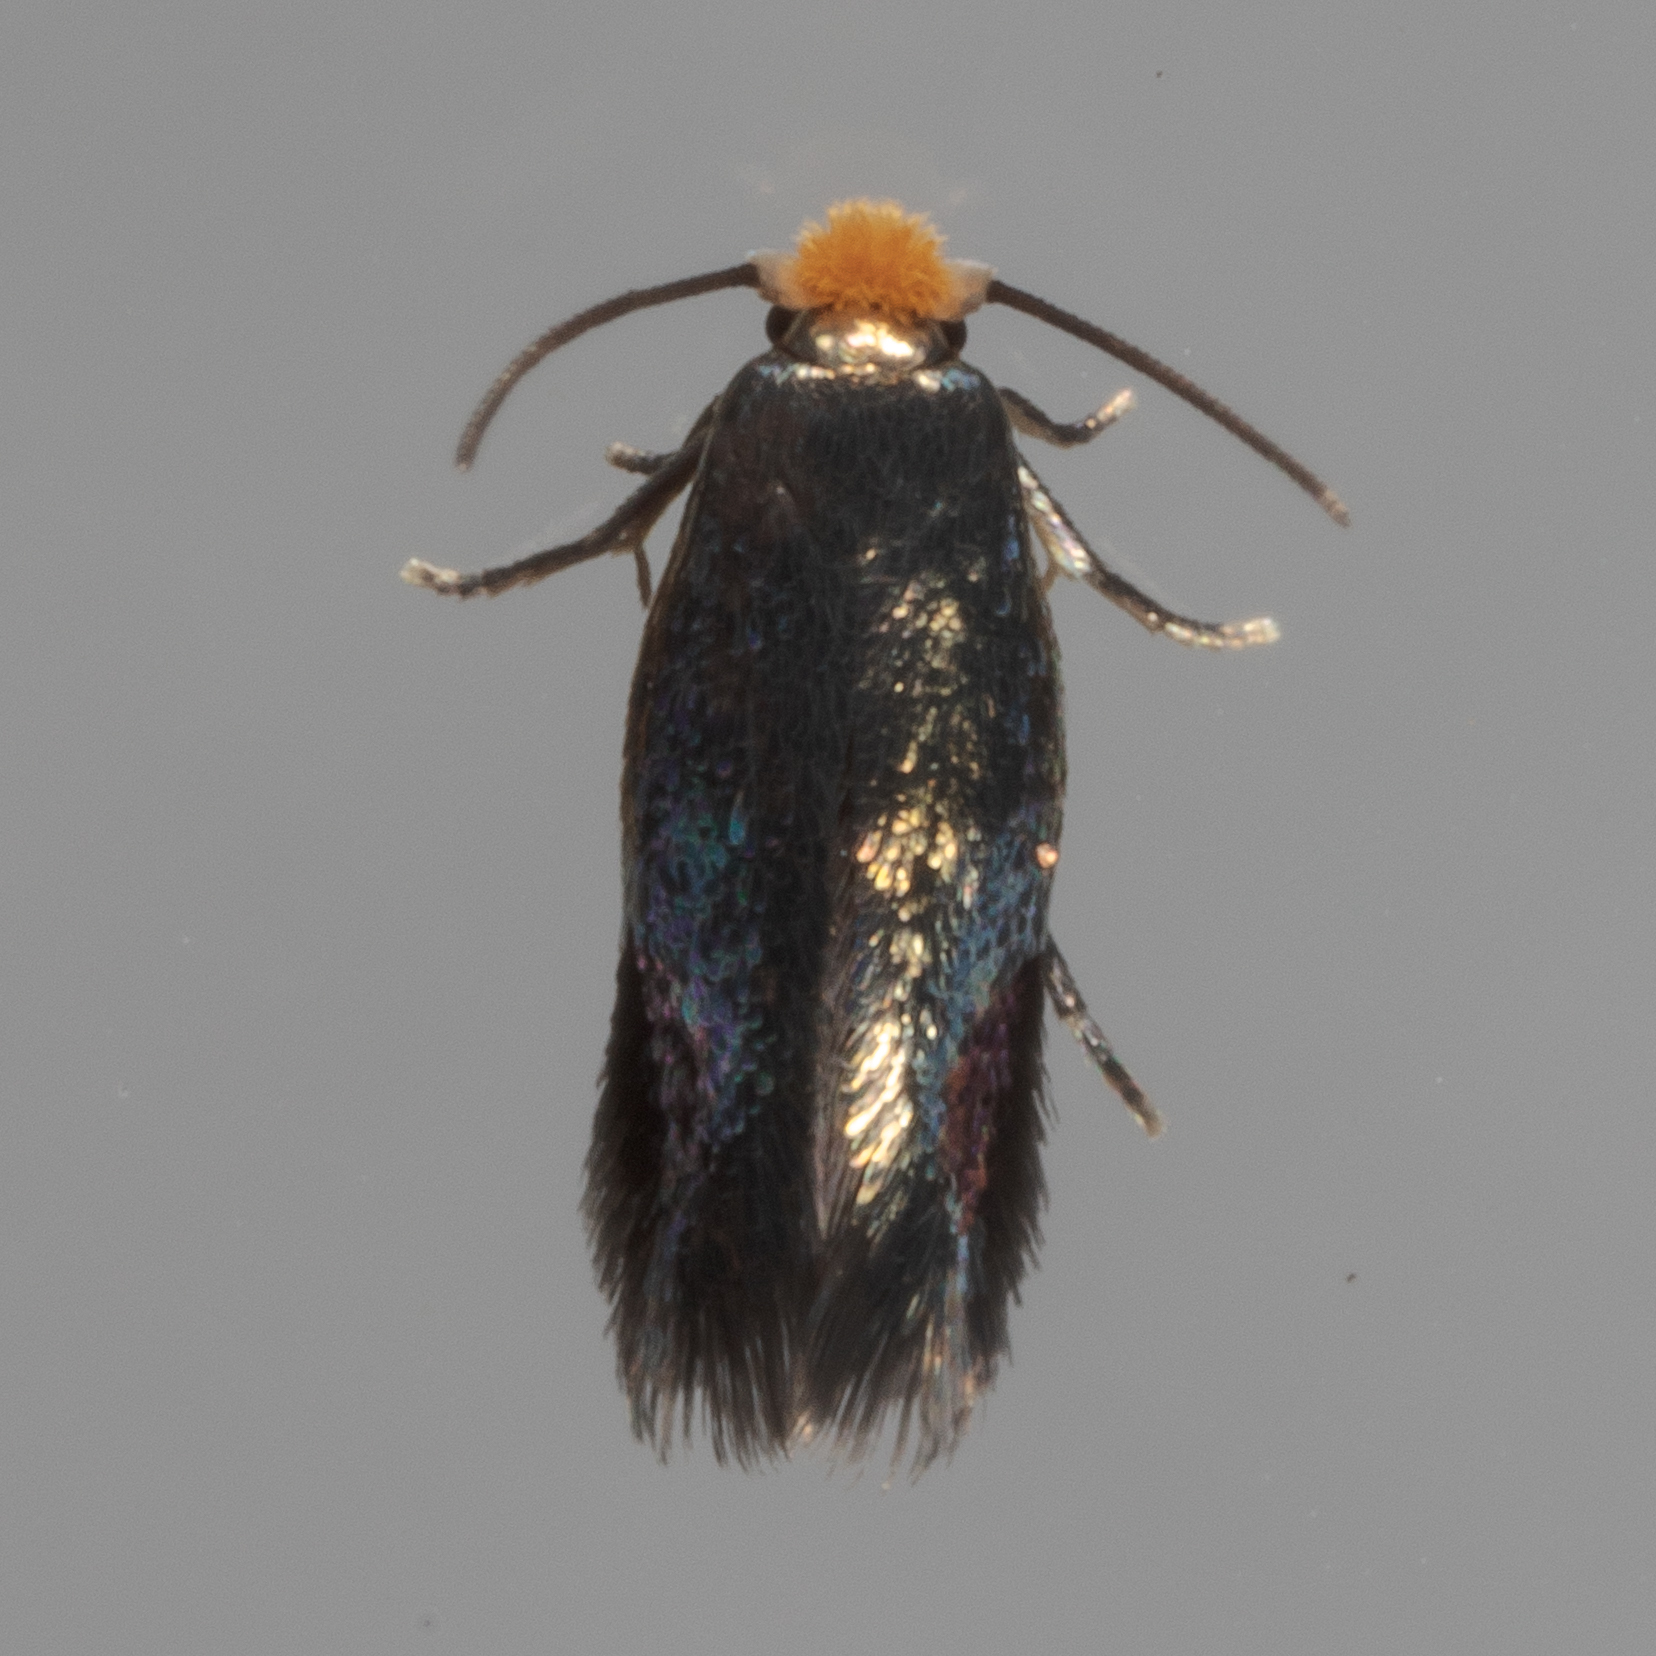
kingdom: Animalia
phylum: Arthropoda
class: Insecta
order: Lepidoptera
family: Nepticulidae
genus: Stigmella
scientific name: Stigmella resplendensella
